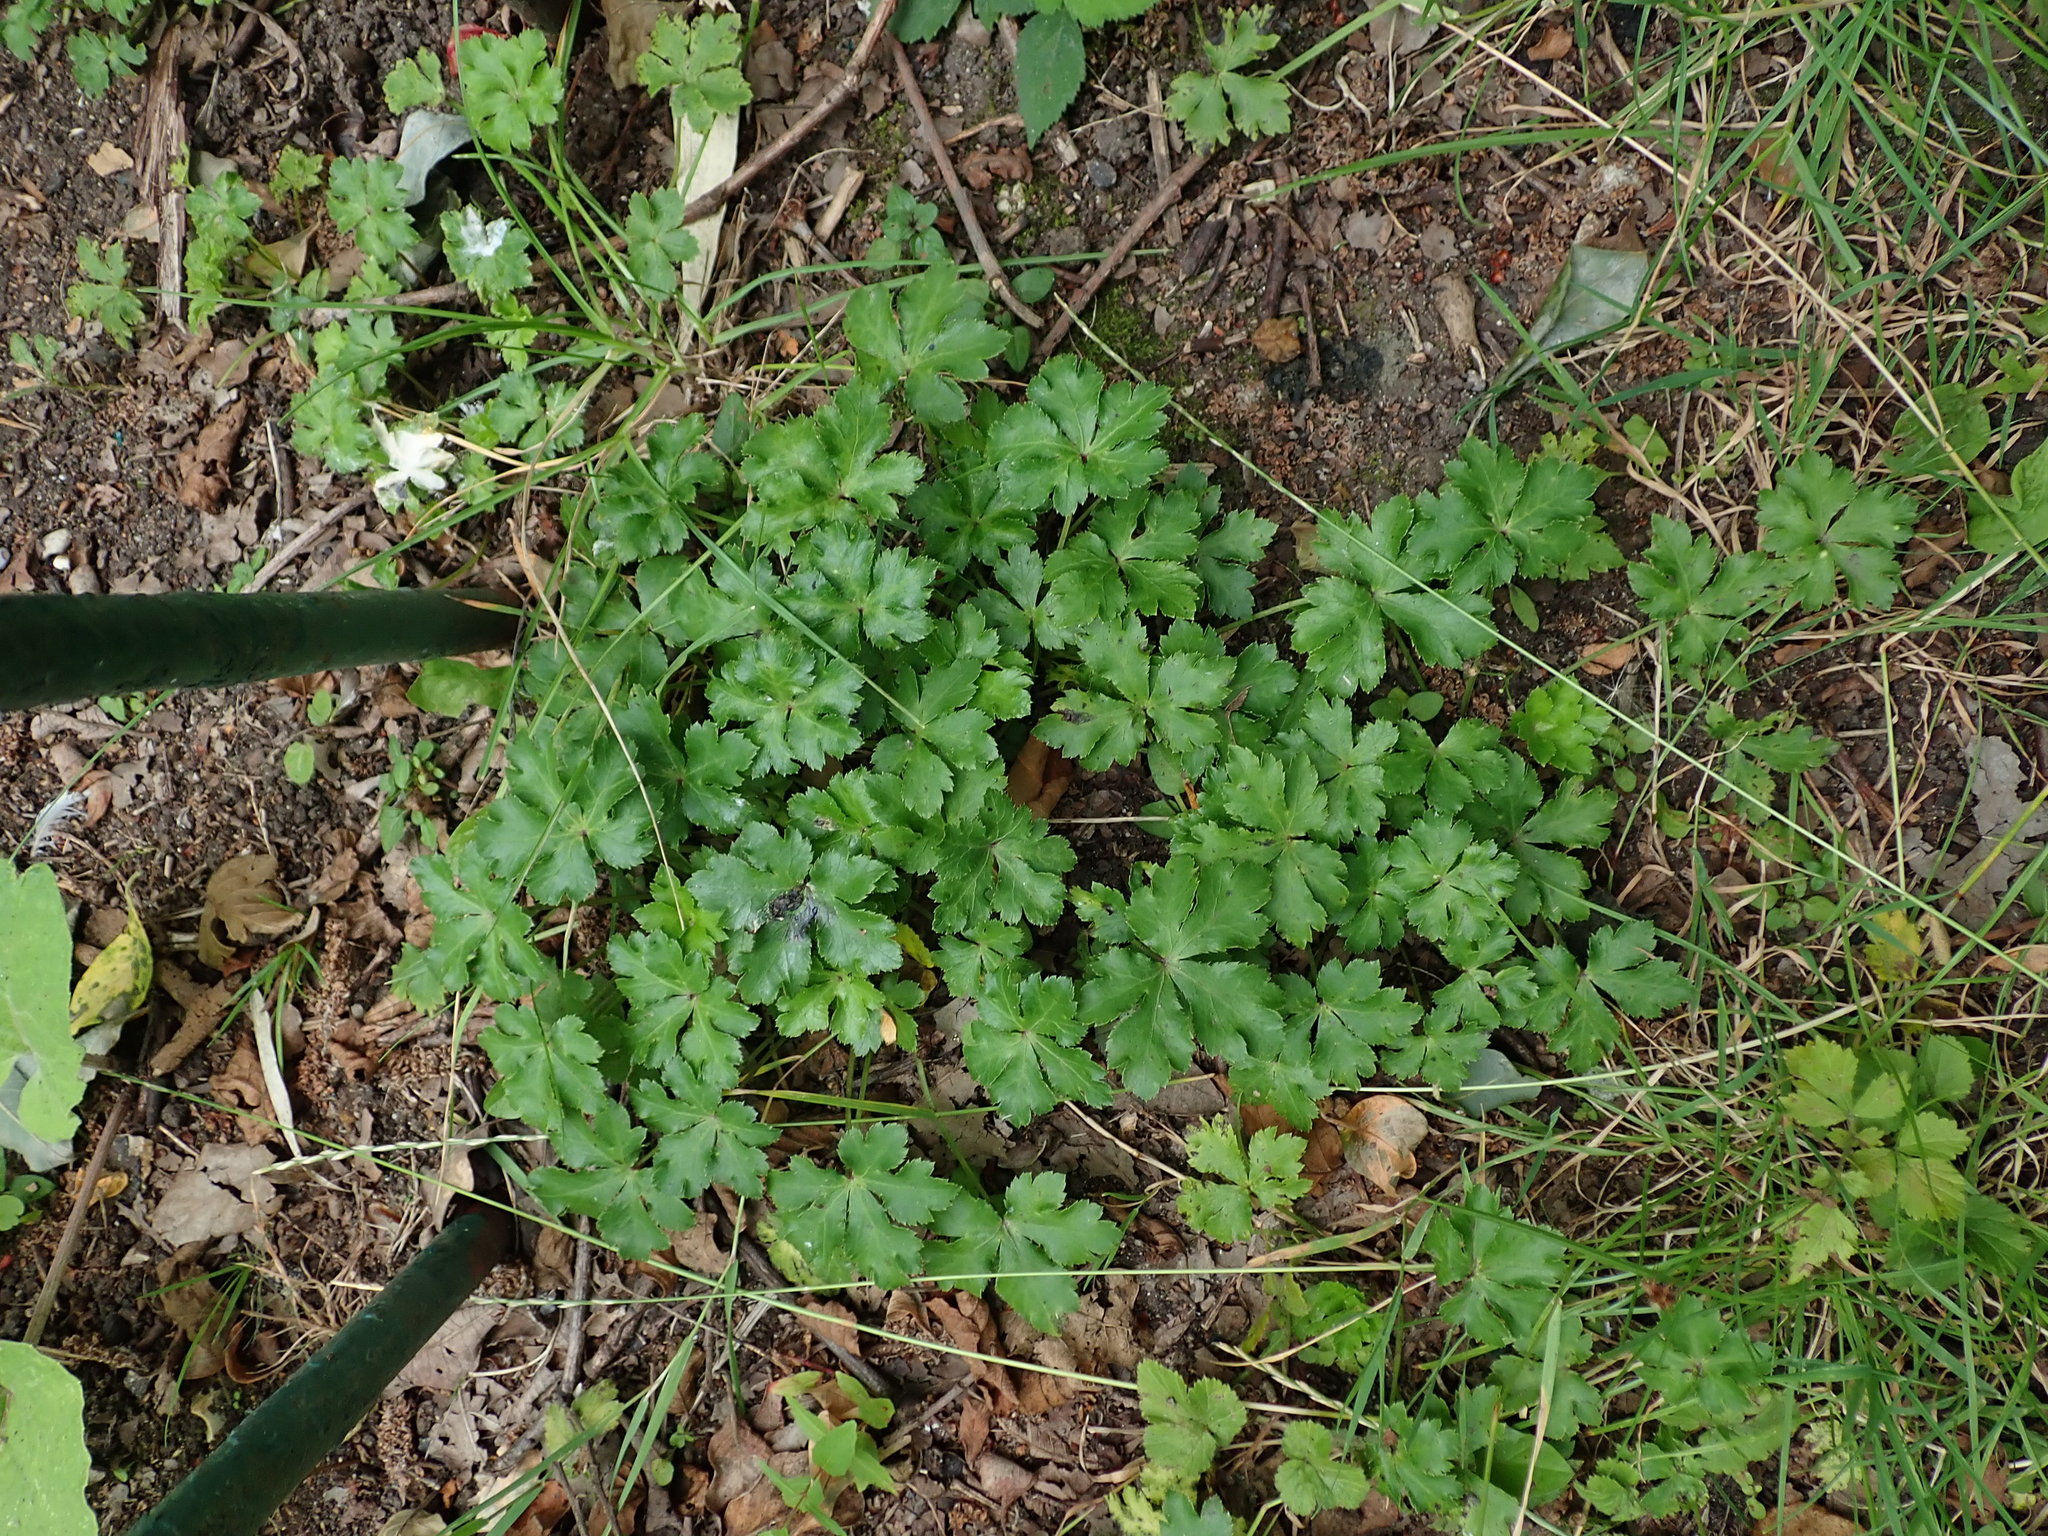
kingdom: Plantae
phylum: Tracheophyta
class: Magnoliopsida
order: Apiales
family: Apiaceae
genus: Sanicula
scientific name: Sanicula europaea
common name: Sanicle
